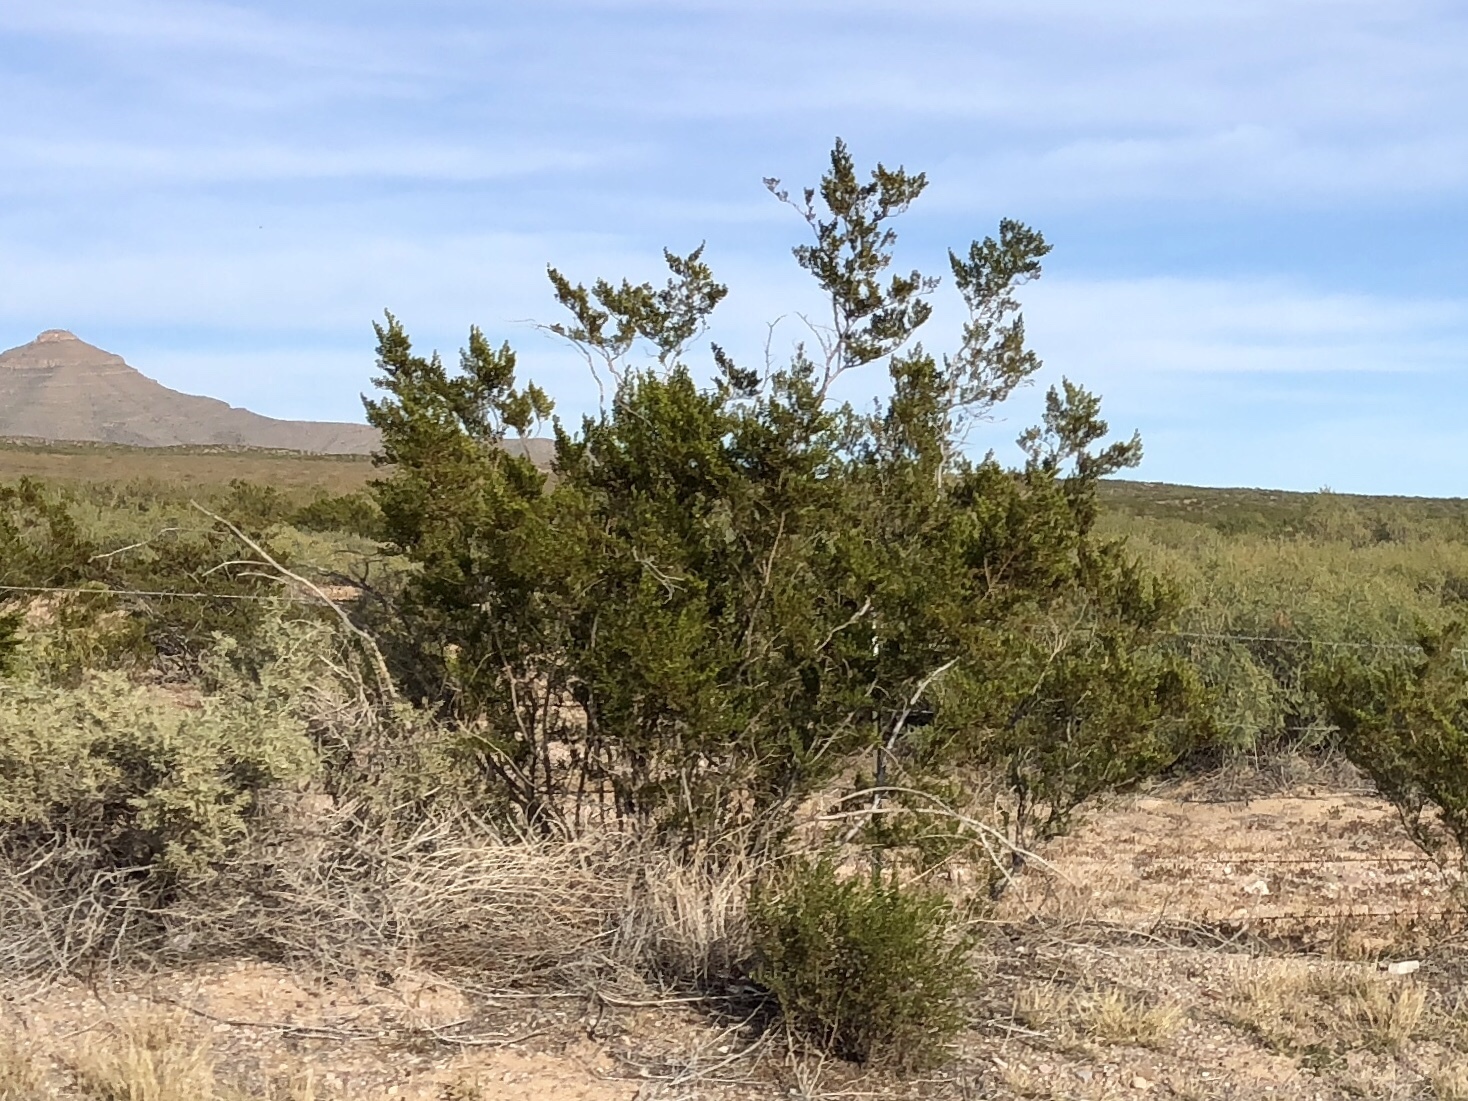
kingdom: Plantae
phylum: Tracheophyta
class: Magnoliopsida
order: Zygophyllales
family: Zygophyllaceae
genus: Larrea
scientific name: Larrea tridentata
